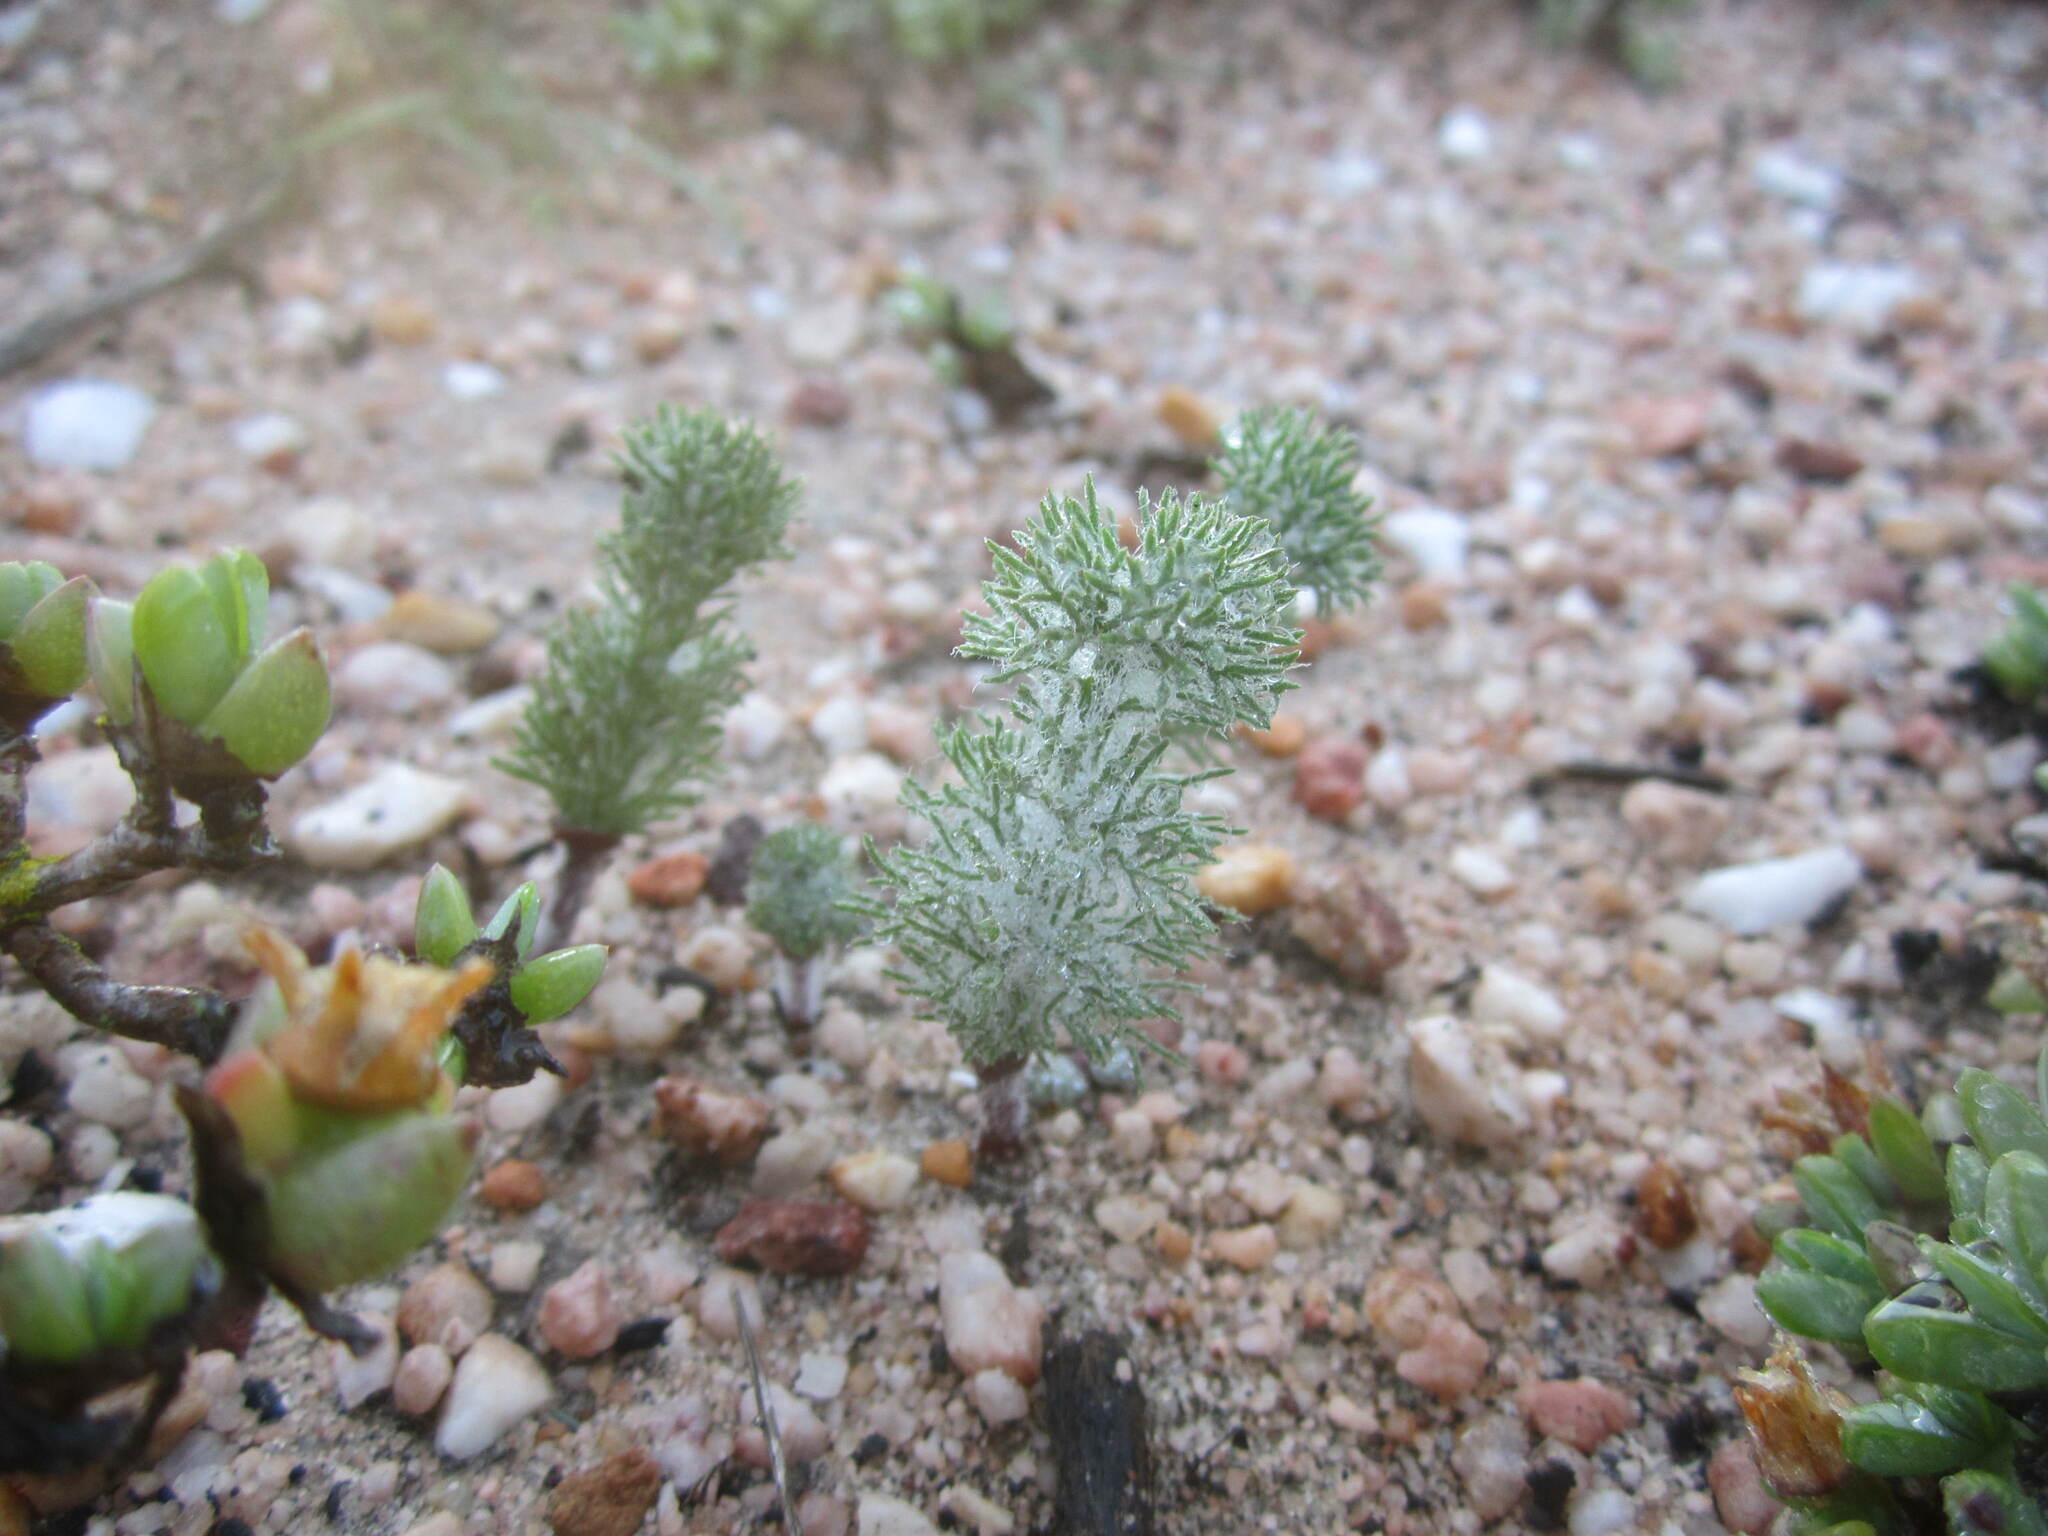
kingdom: Plantae
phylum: Tracheophyta
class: Liliopsida
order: Asparagales
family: Asparagaceae
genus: Eriospermum
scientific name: Eriospermum paradoxum
